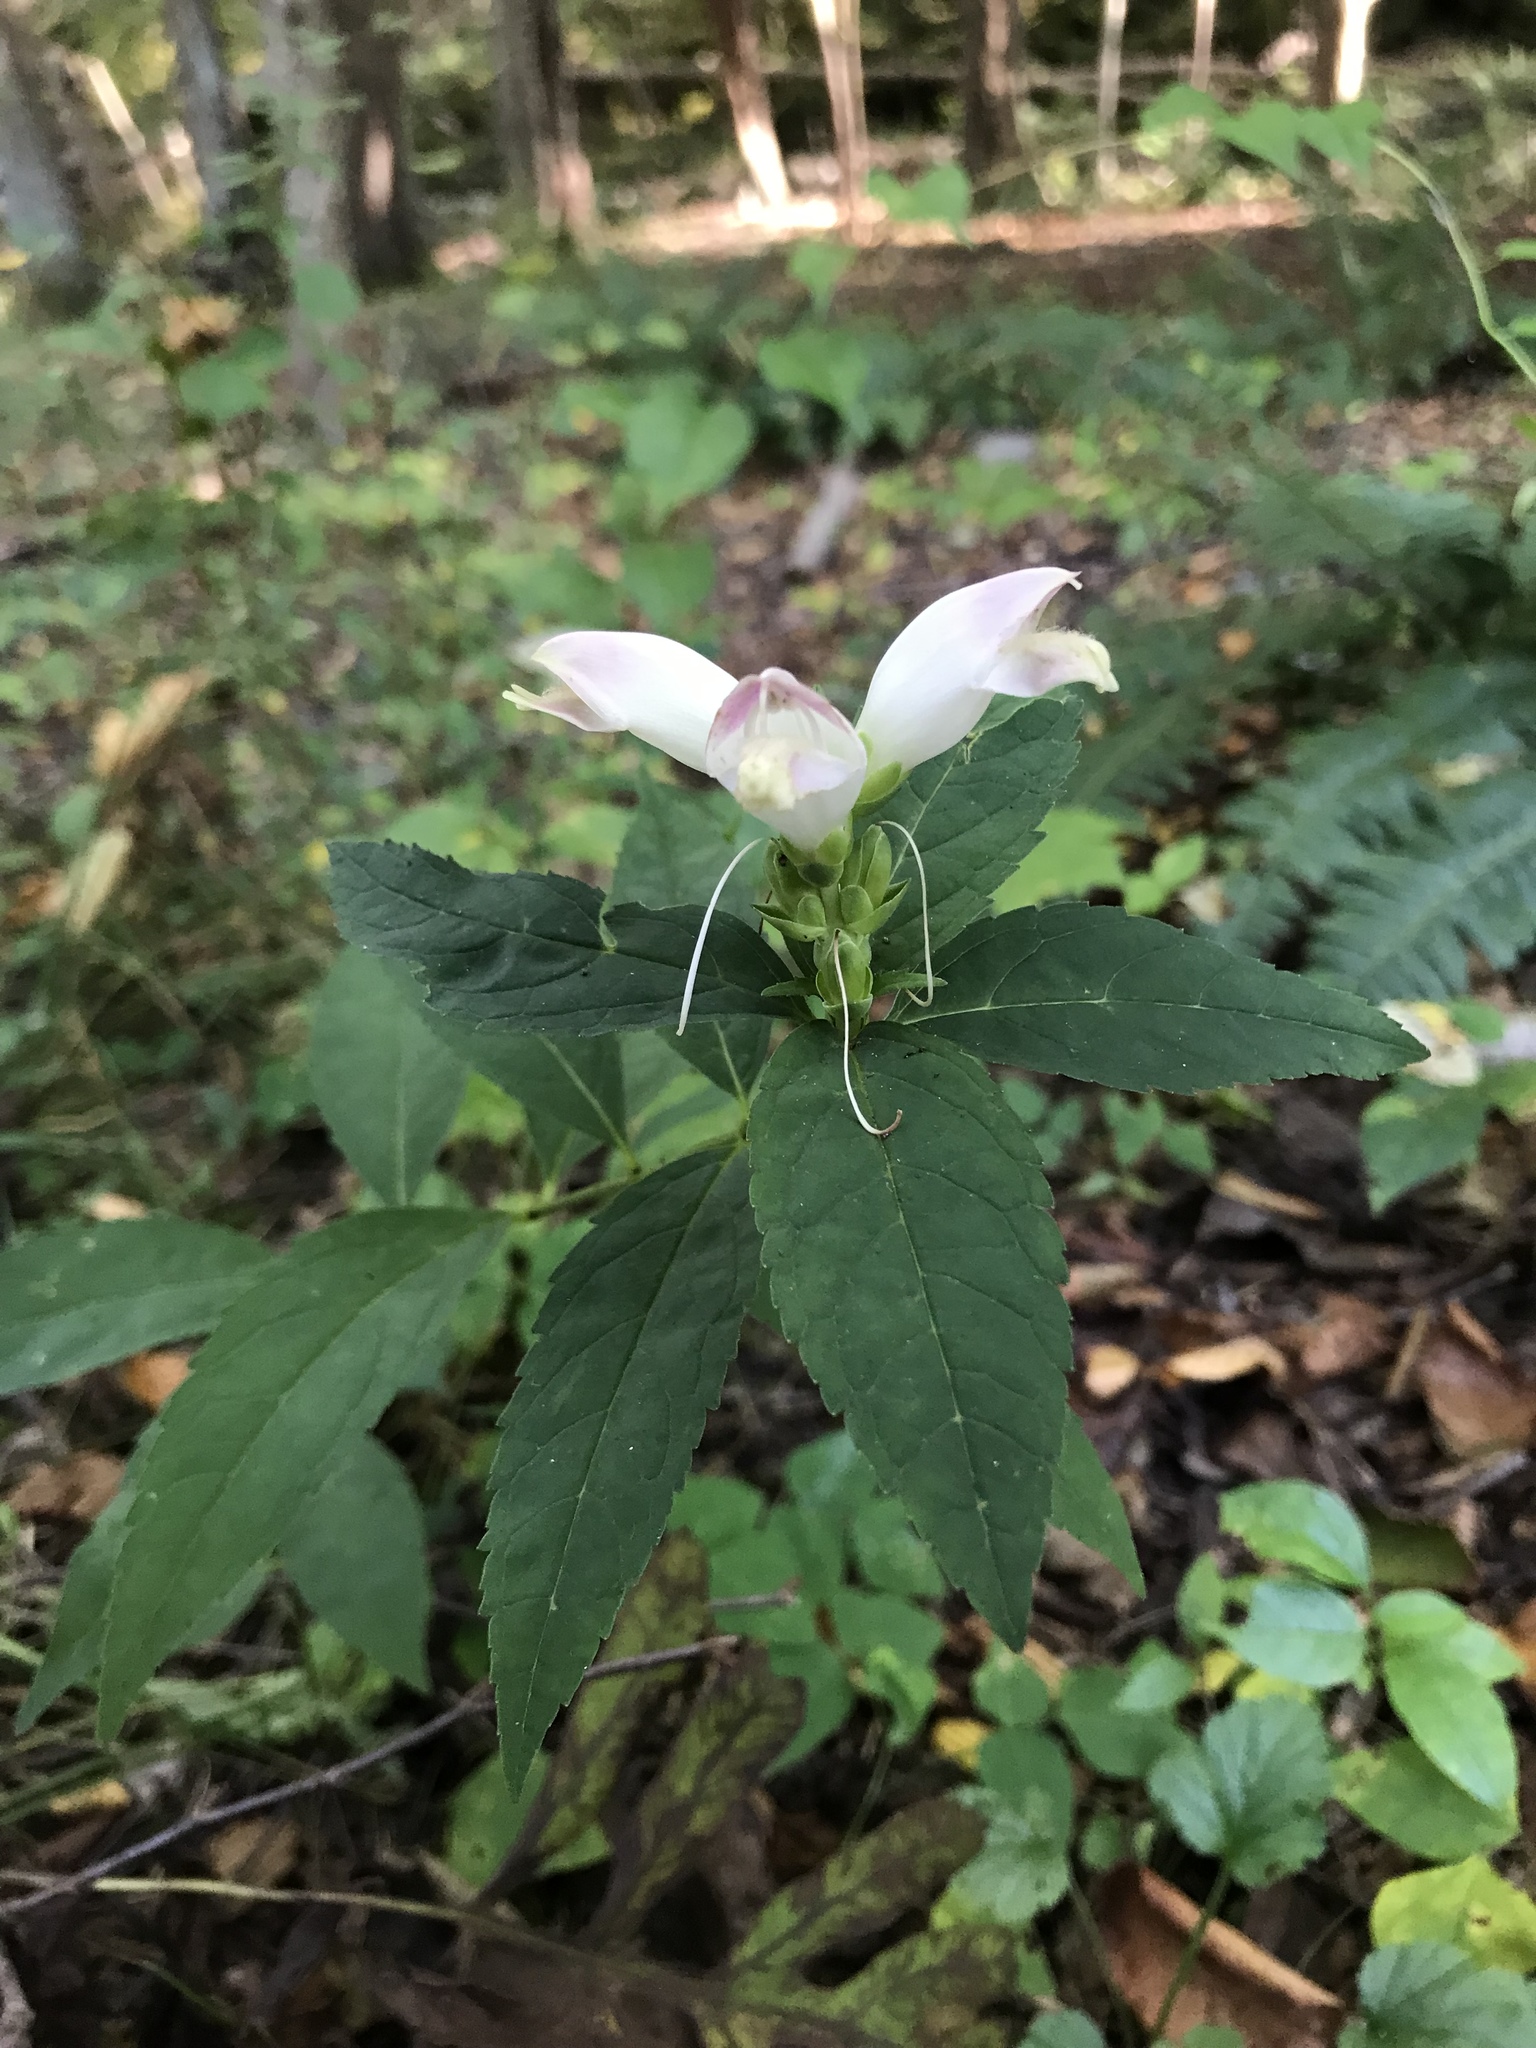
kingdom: Plantae
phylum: Tracheophyta
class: Magnoliopsida
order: Lamiales
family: Plantaginaceae
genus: Chelone
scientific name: Chelone glabra
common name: Snakehead
